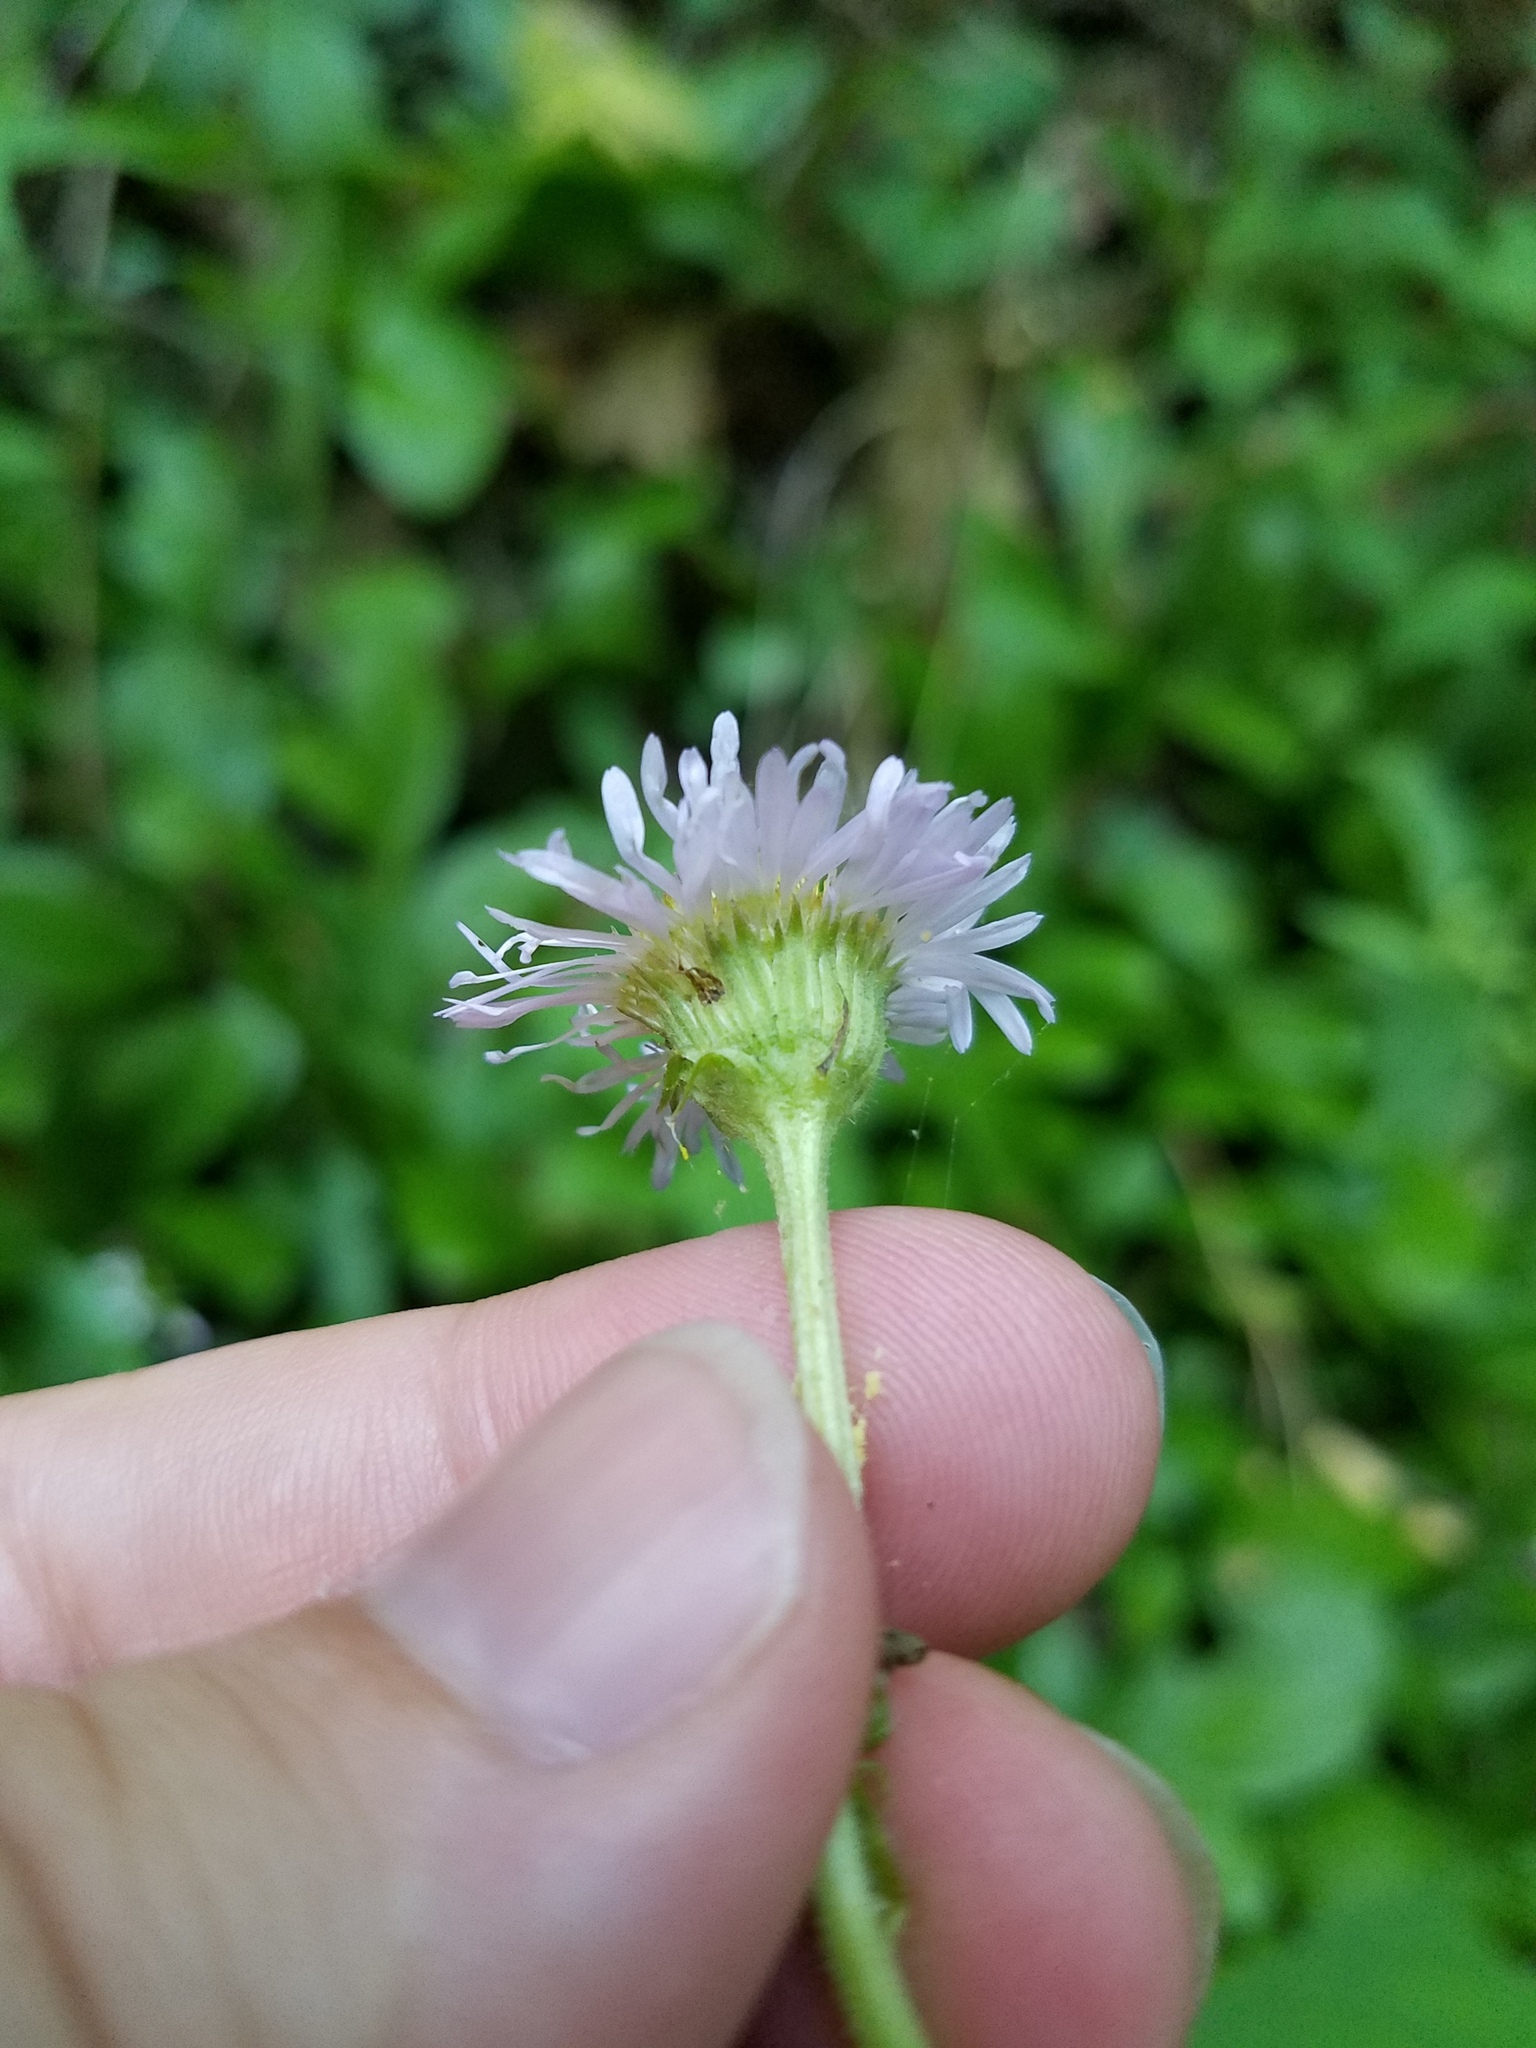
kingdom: Plantae
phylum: Tracheophyta
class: Magnoliopsida
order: Asterales
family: Asteraceae
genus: Erigeron
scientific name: Erigeron pulchellus
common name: Hairy fleabane
